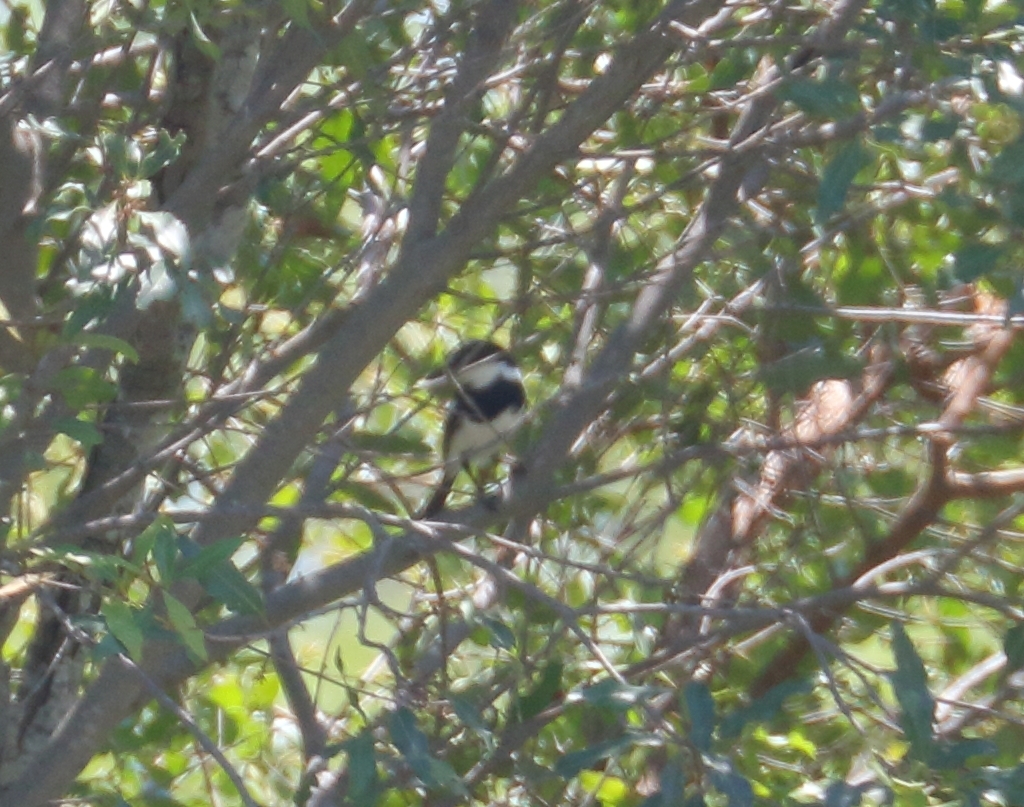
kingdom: Animalia
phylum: Chordata
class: Aves
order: Passeriformes
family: Platysteiridae
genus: Batis
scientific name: Batis molitor
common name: Chinspot batis
